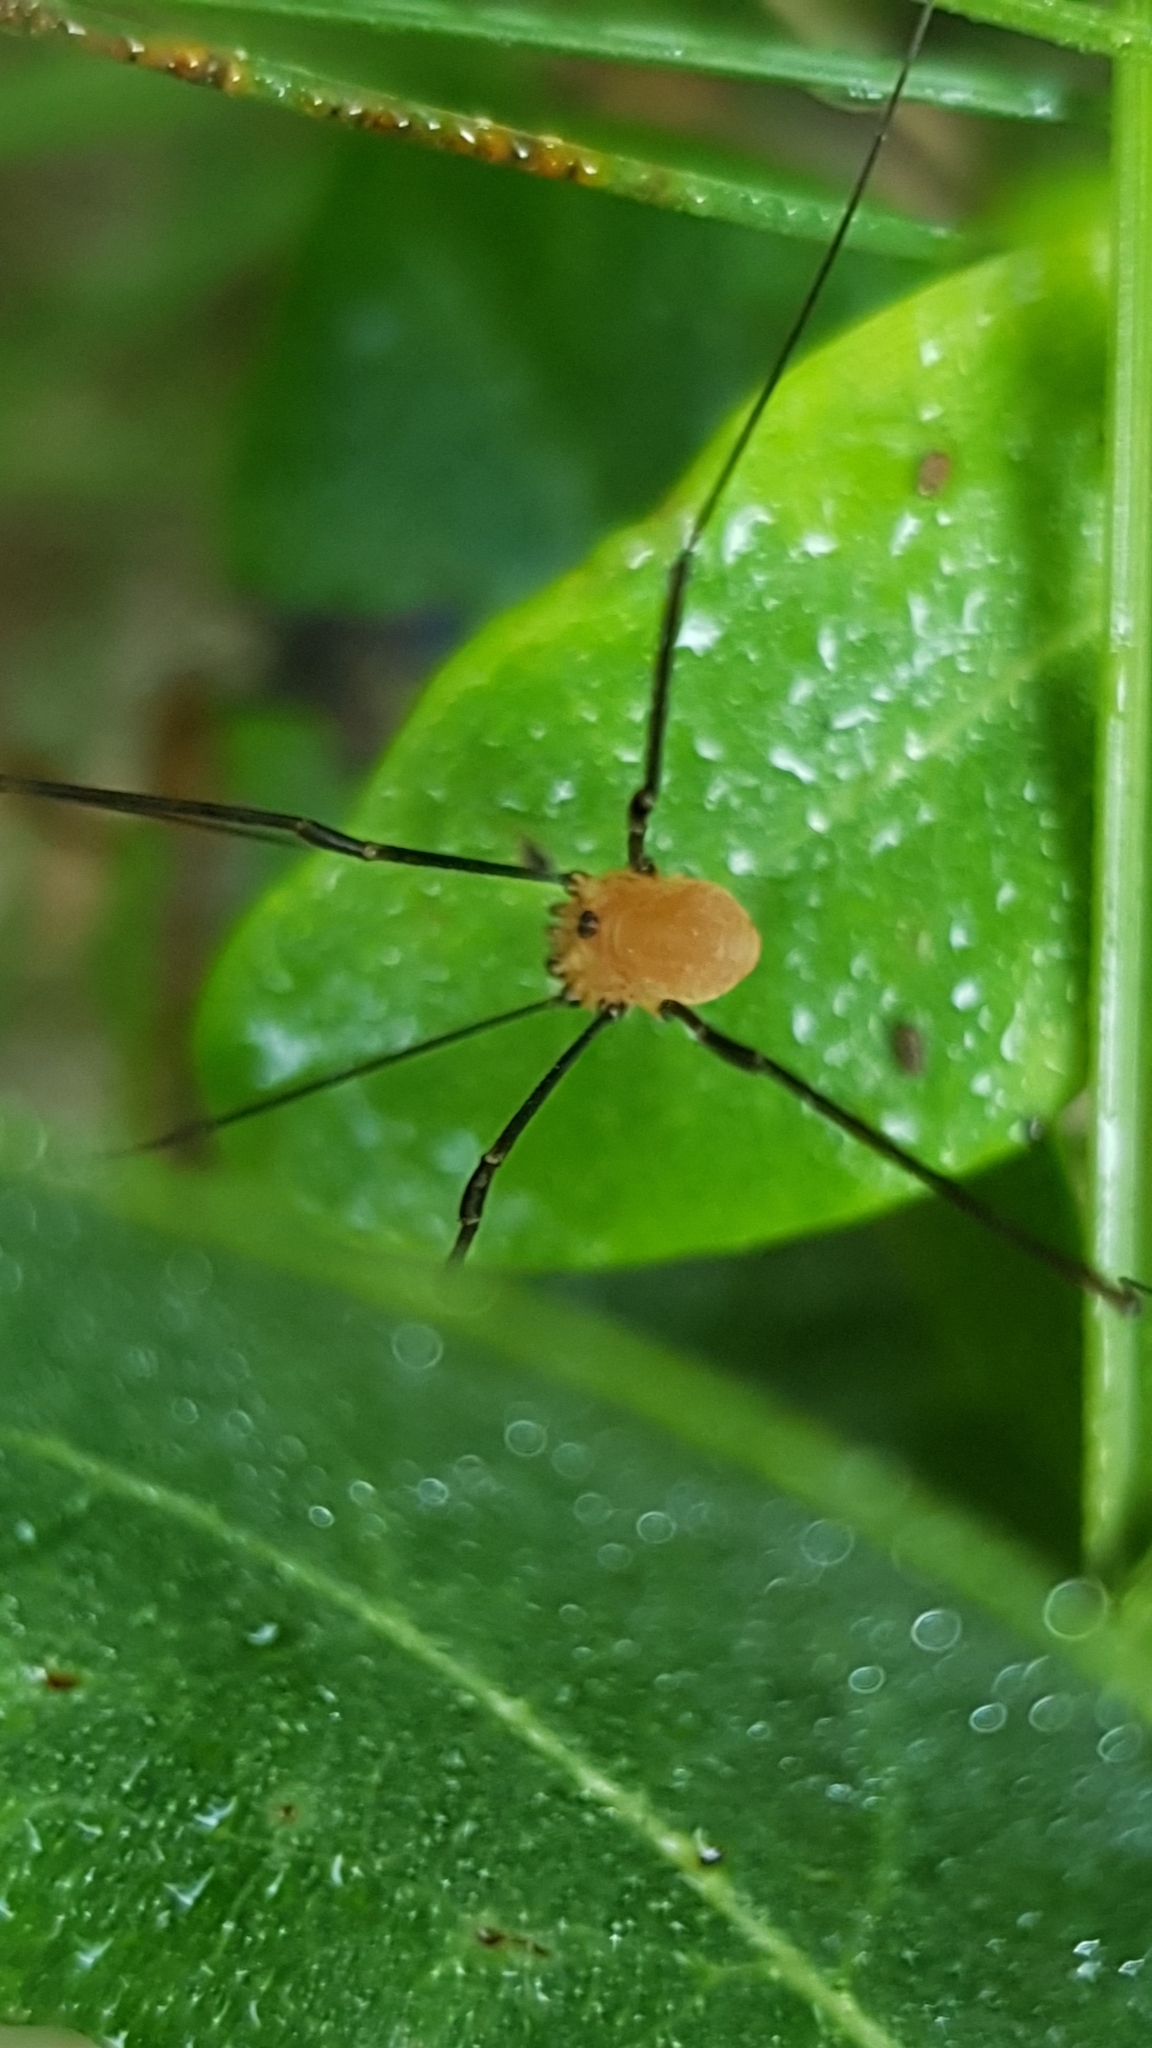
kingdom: Animalia
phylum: Arthropoda
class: Arachnida
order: Opiliones
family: Sclerosomatidae
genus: Leiobunum
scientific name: Leiobunum rotundum
